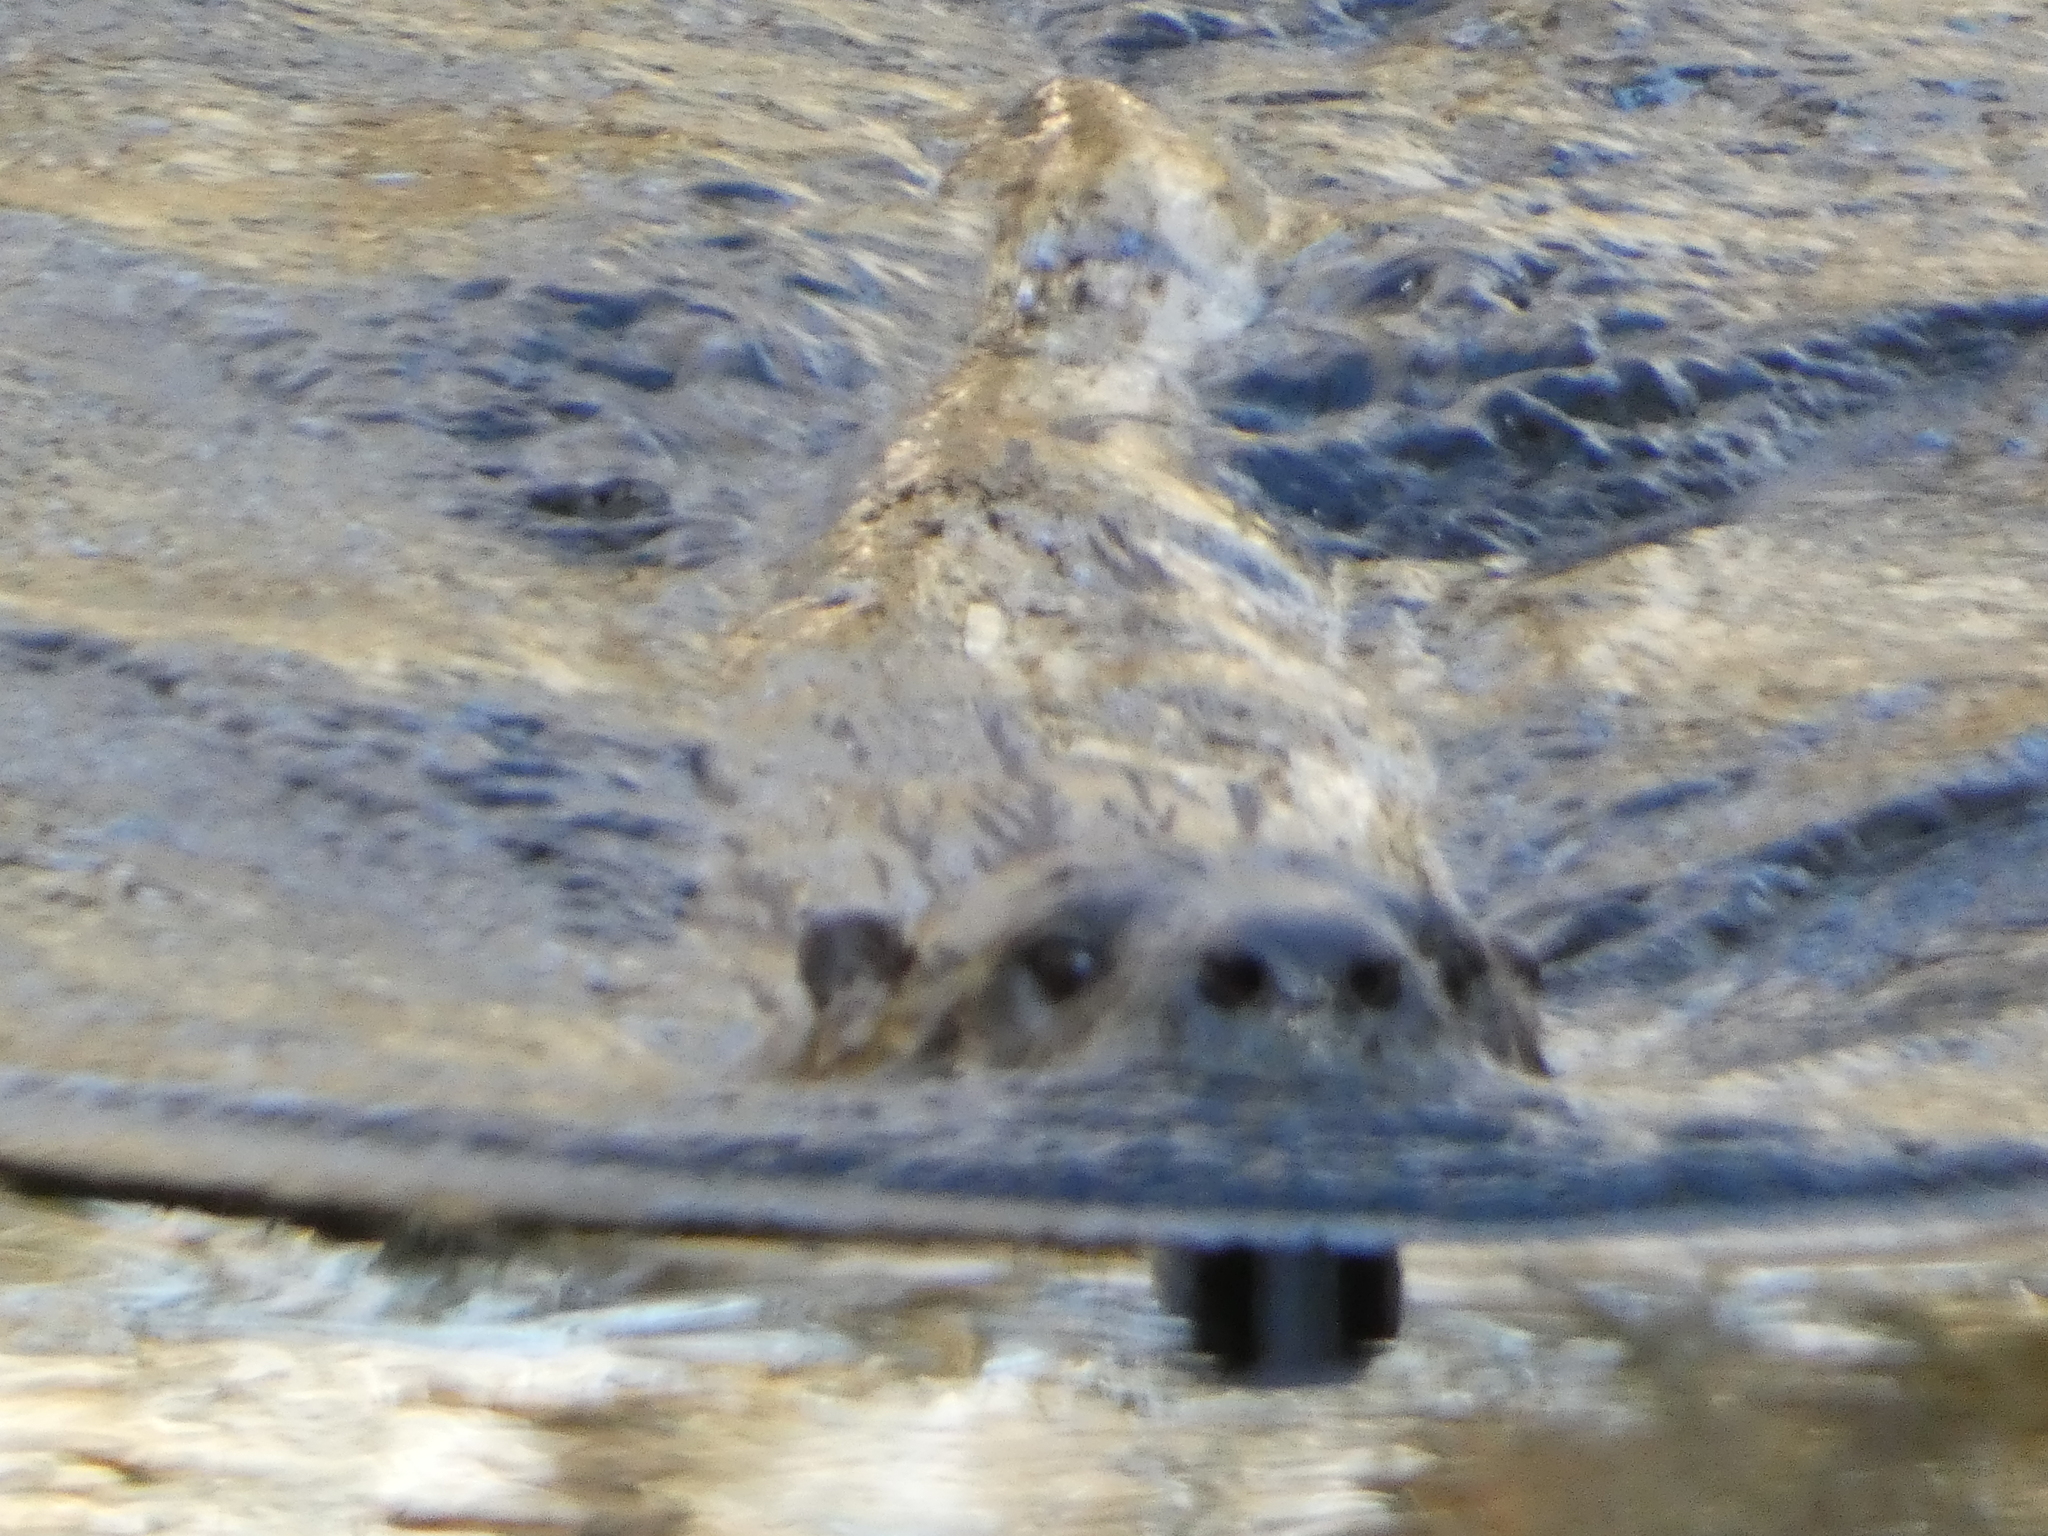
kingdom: Animalia
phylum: Chordata
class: Mammalia
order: Carnivora
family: Mustelidae
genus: Lontra
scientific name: Lontra canadensis
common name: North american river otter
